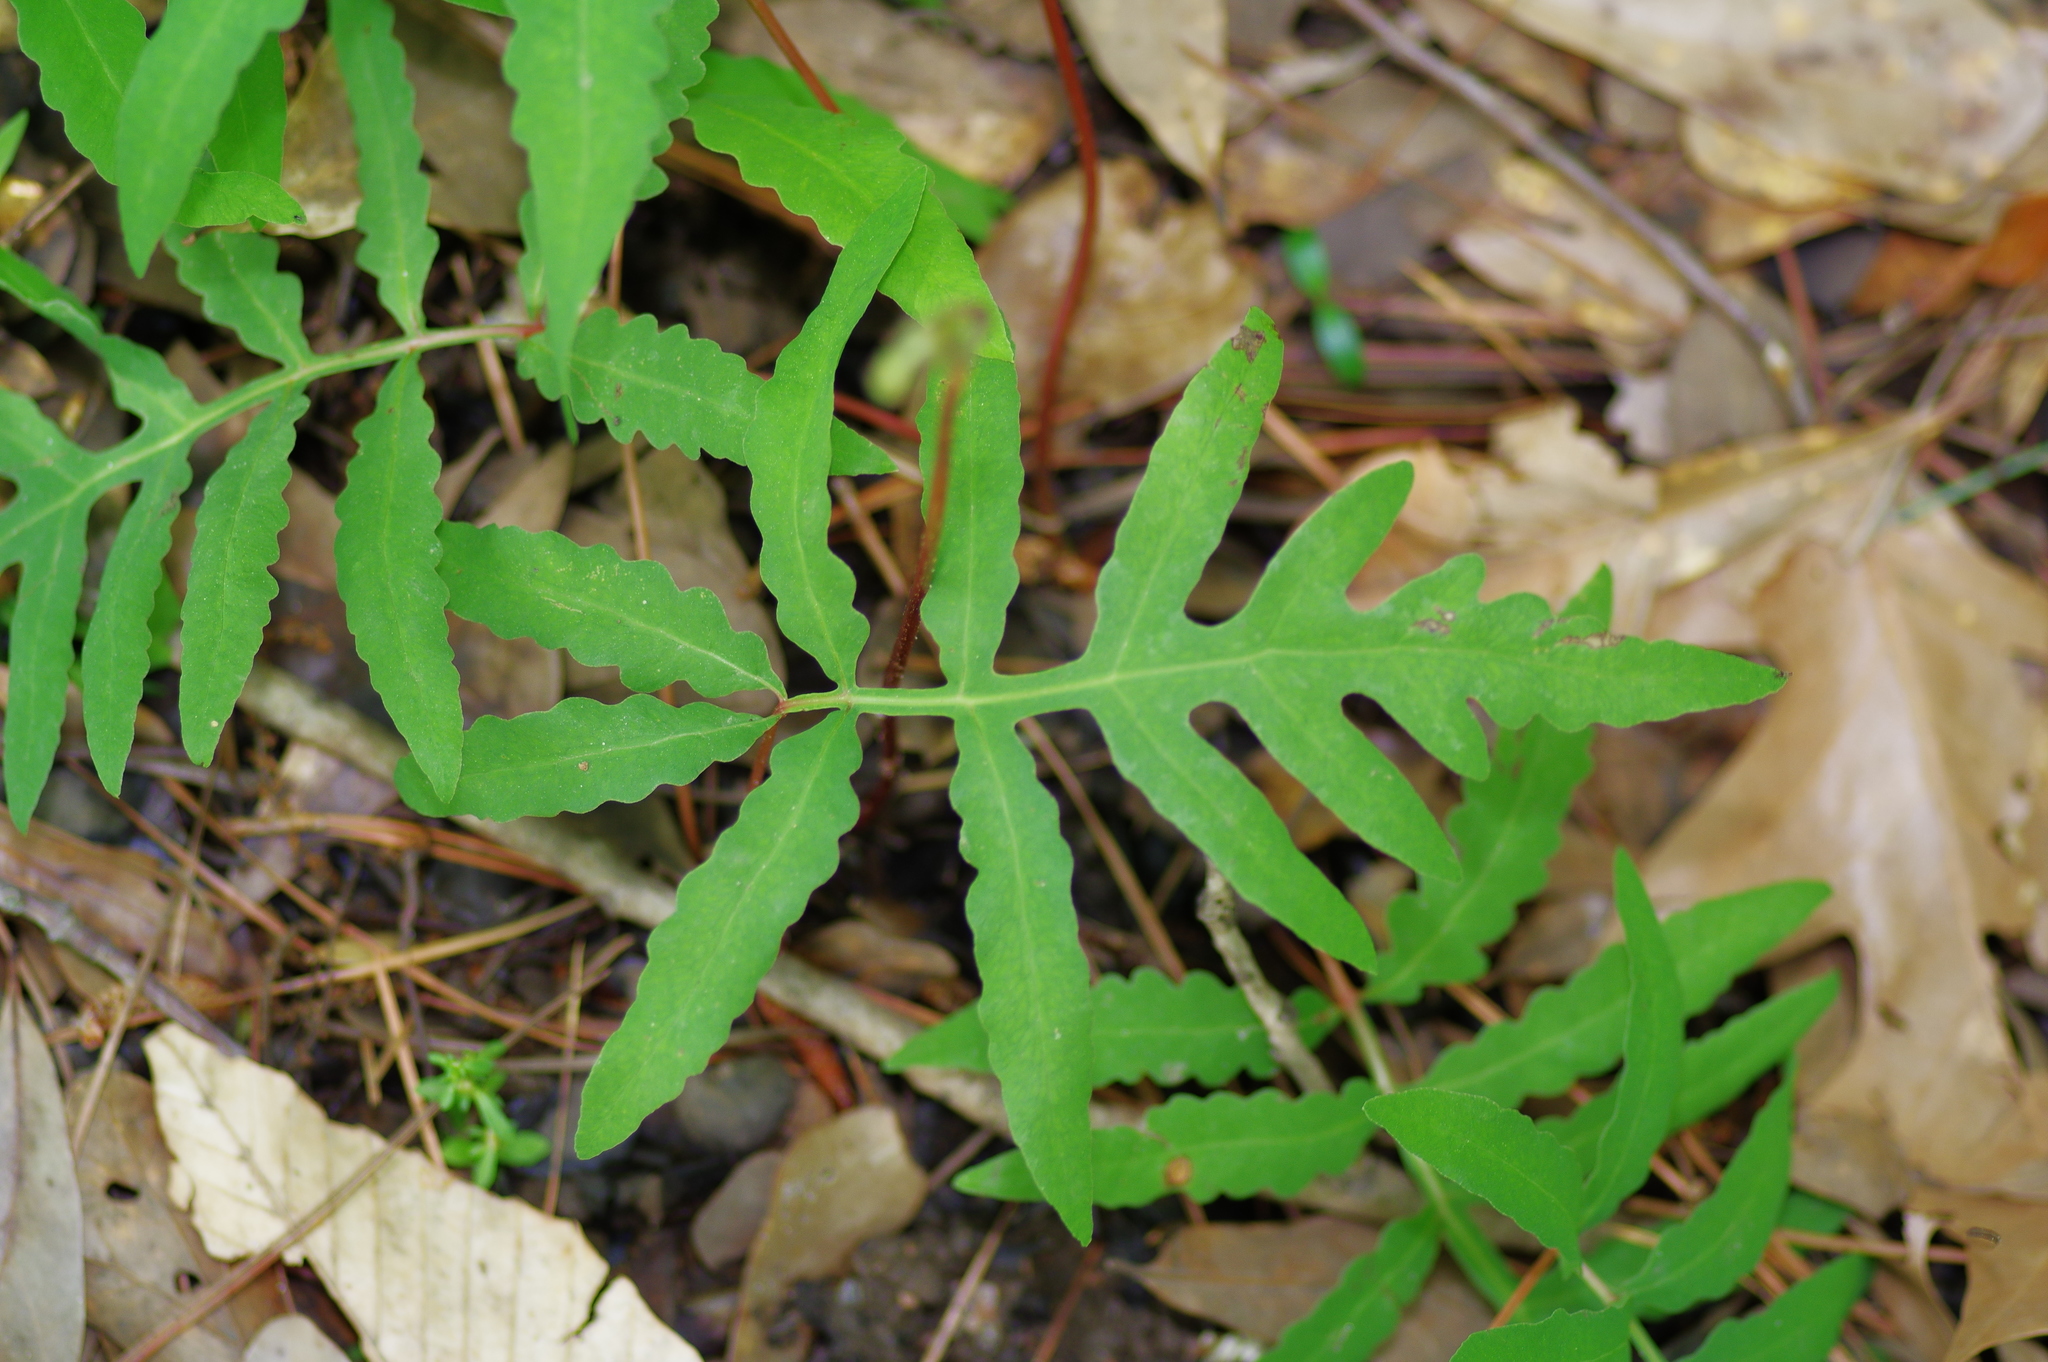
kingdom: Plantae
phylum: Tracheophyta
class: Polypodiopsida
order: Polypodiales
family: Onocleaceae
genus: Onoclea
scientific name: Onoclea sensibilis
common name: Sensitive fern
